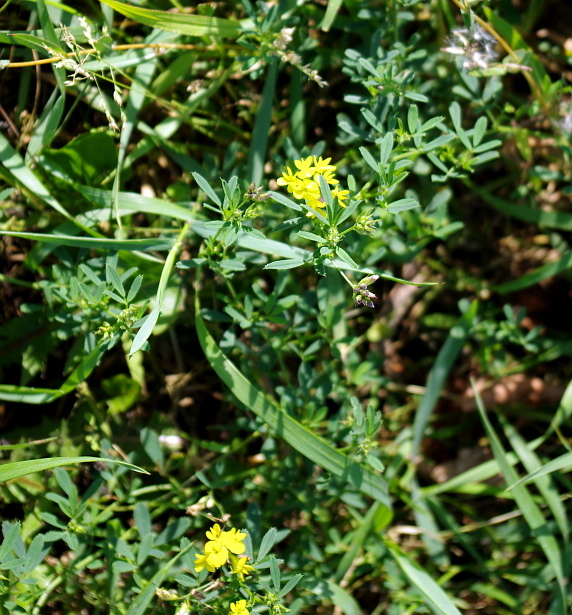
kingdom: Plantae
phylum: Tracheophyta
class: Magnoliopsida
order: Fabales
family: Fabaceae
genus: Medicago
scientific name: Medicago falcata
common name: Sickle medick
